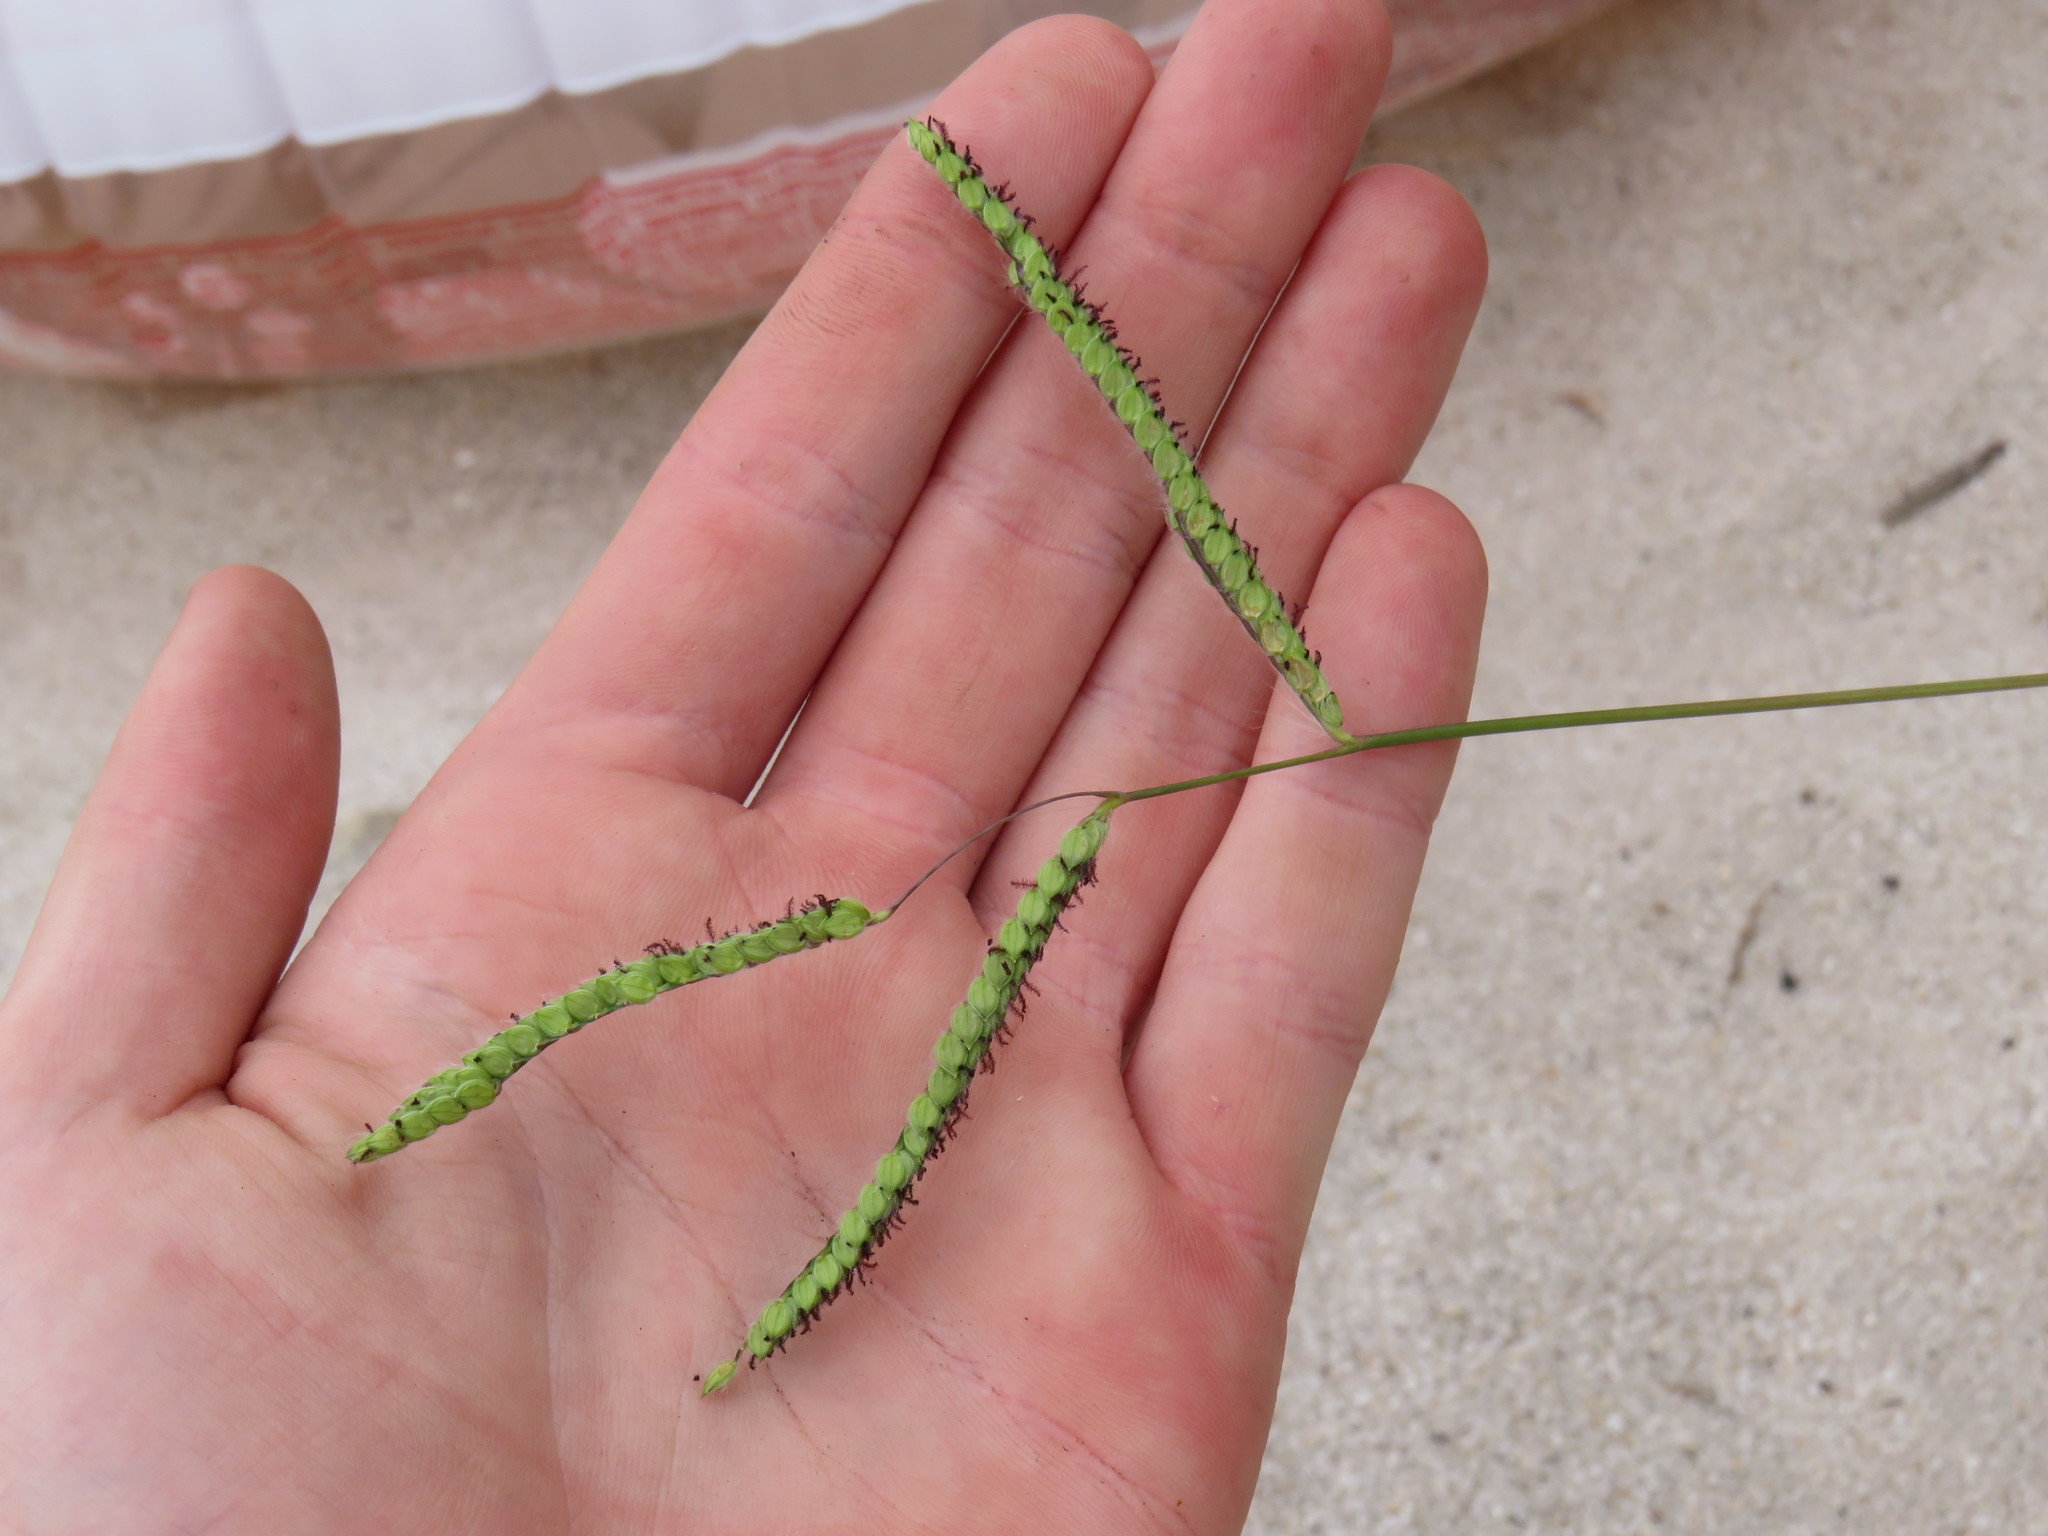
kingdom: Plantae
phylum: Tracheophyta
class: Liliopsida
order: Poales
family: Poaceae
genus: Paspalum
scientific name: Paspalum dilatatum
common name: Dallisgrass
